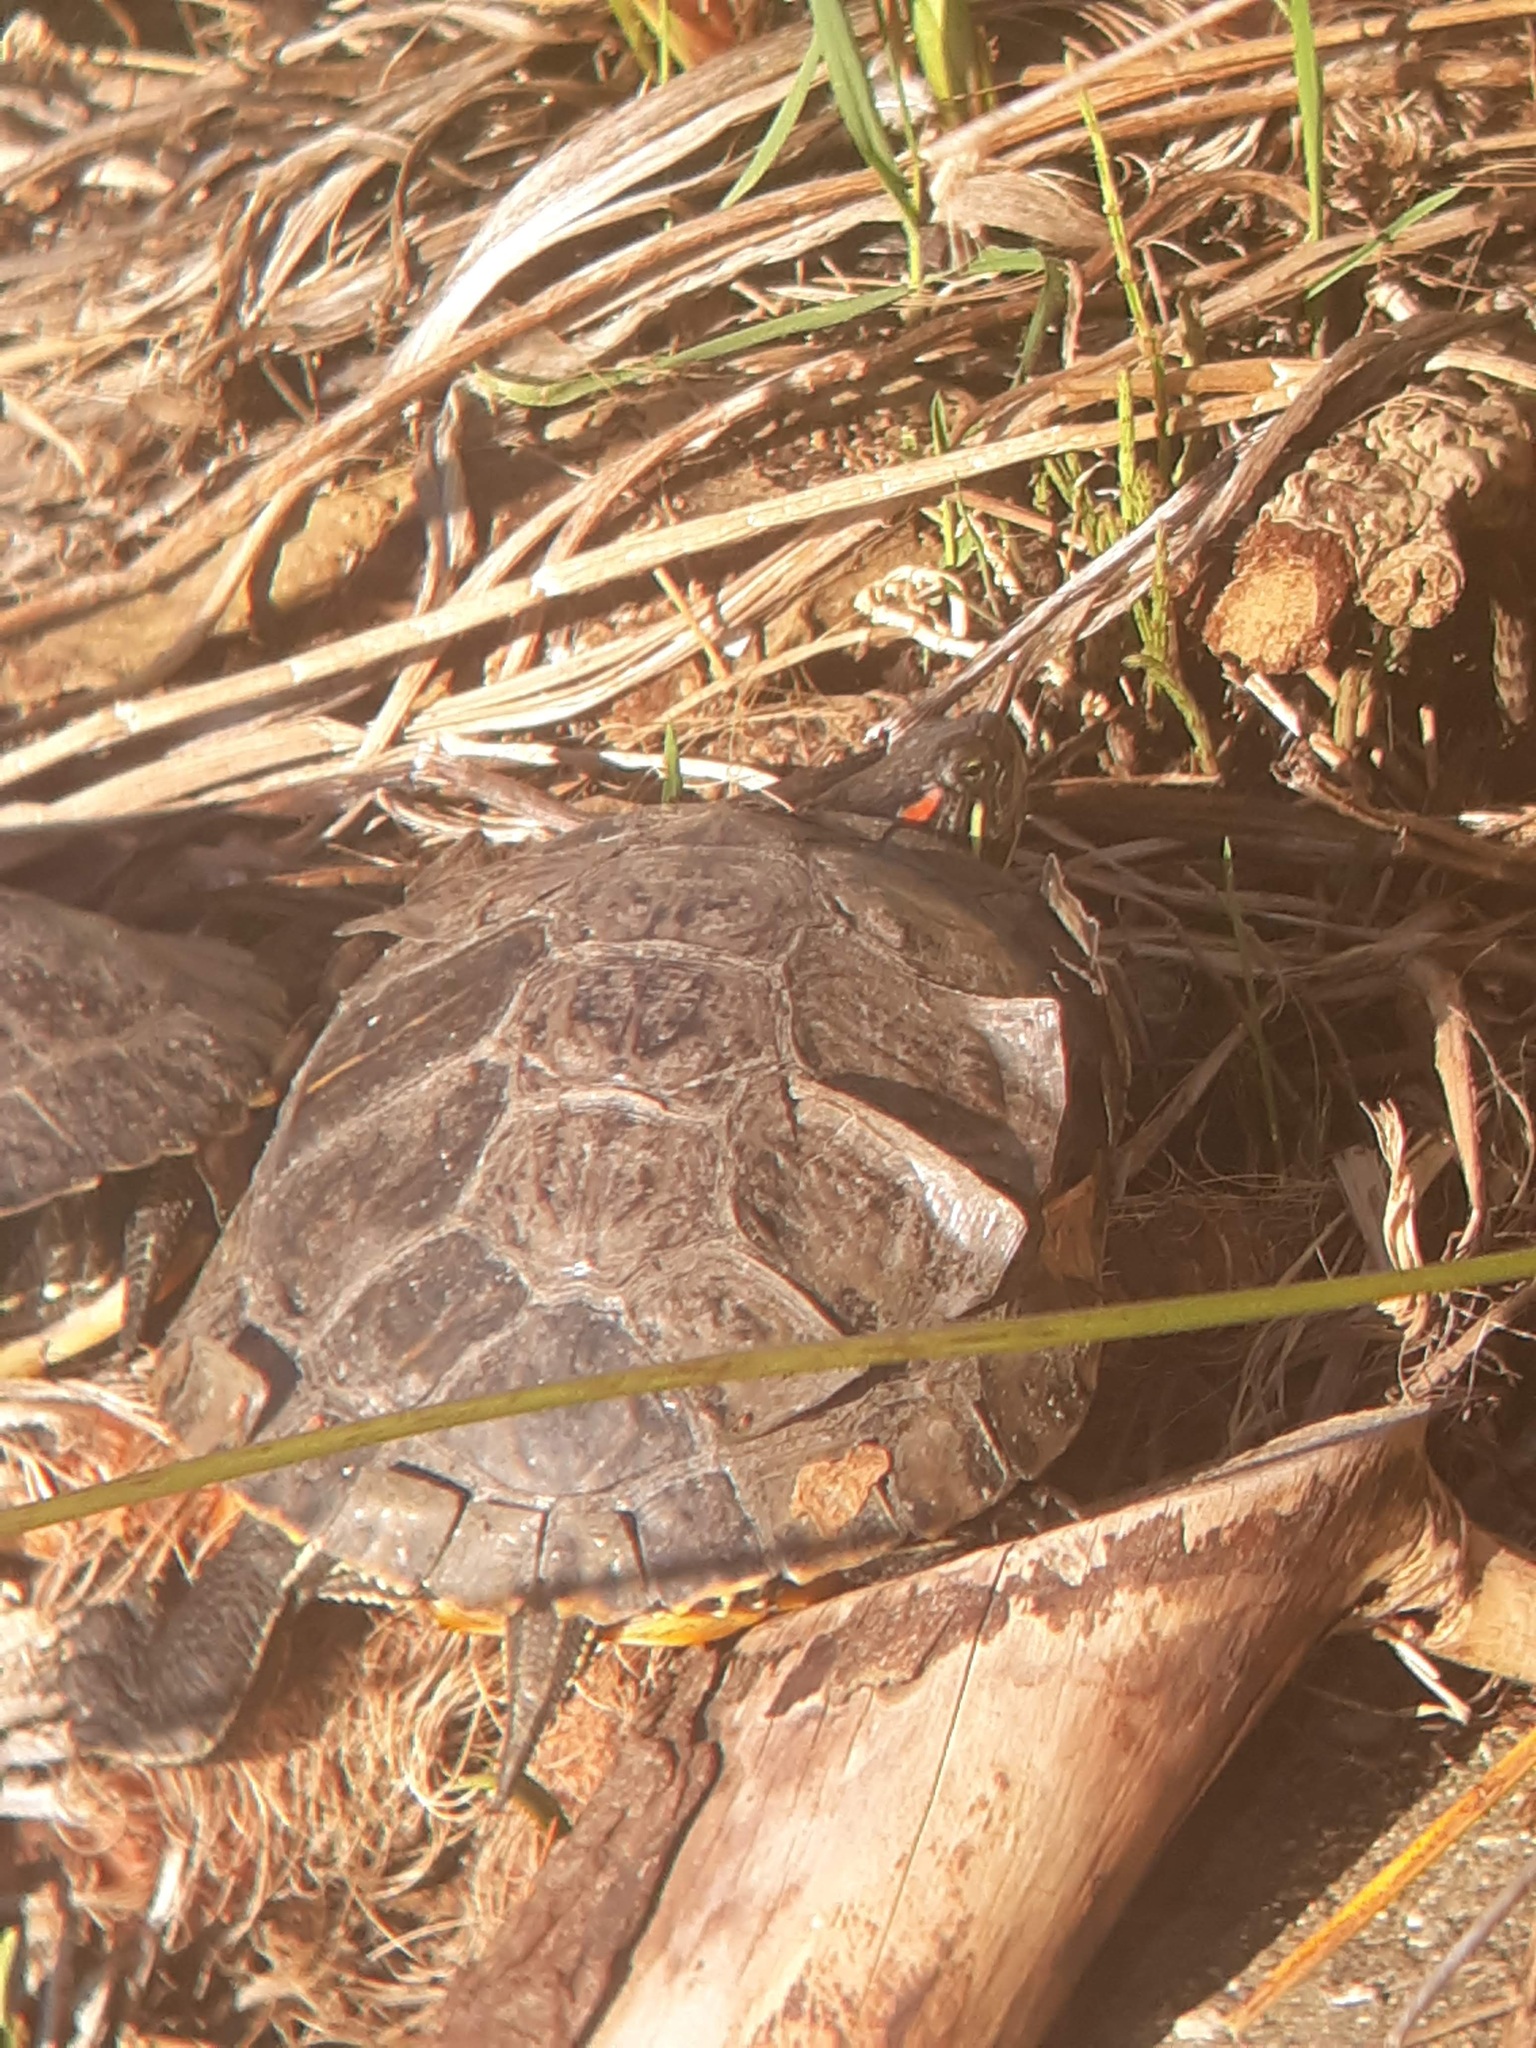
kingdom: Animalia
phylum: Chordata
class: Testudines
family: Emydidae
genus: Trachemys
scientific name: Trachemys scripta
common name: Slider
